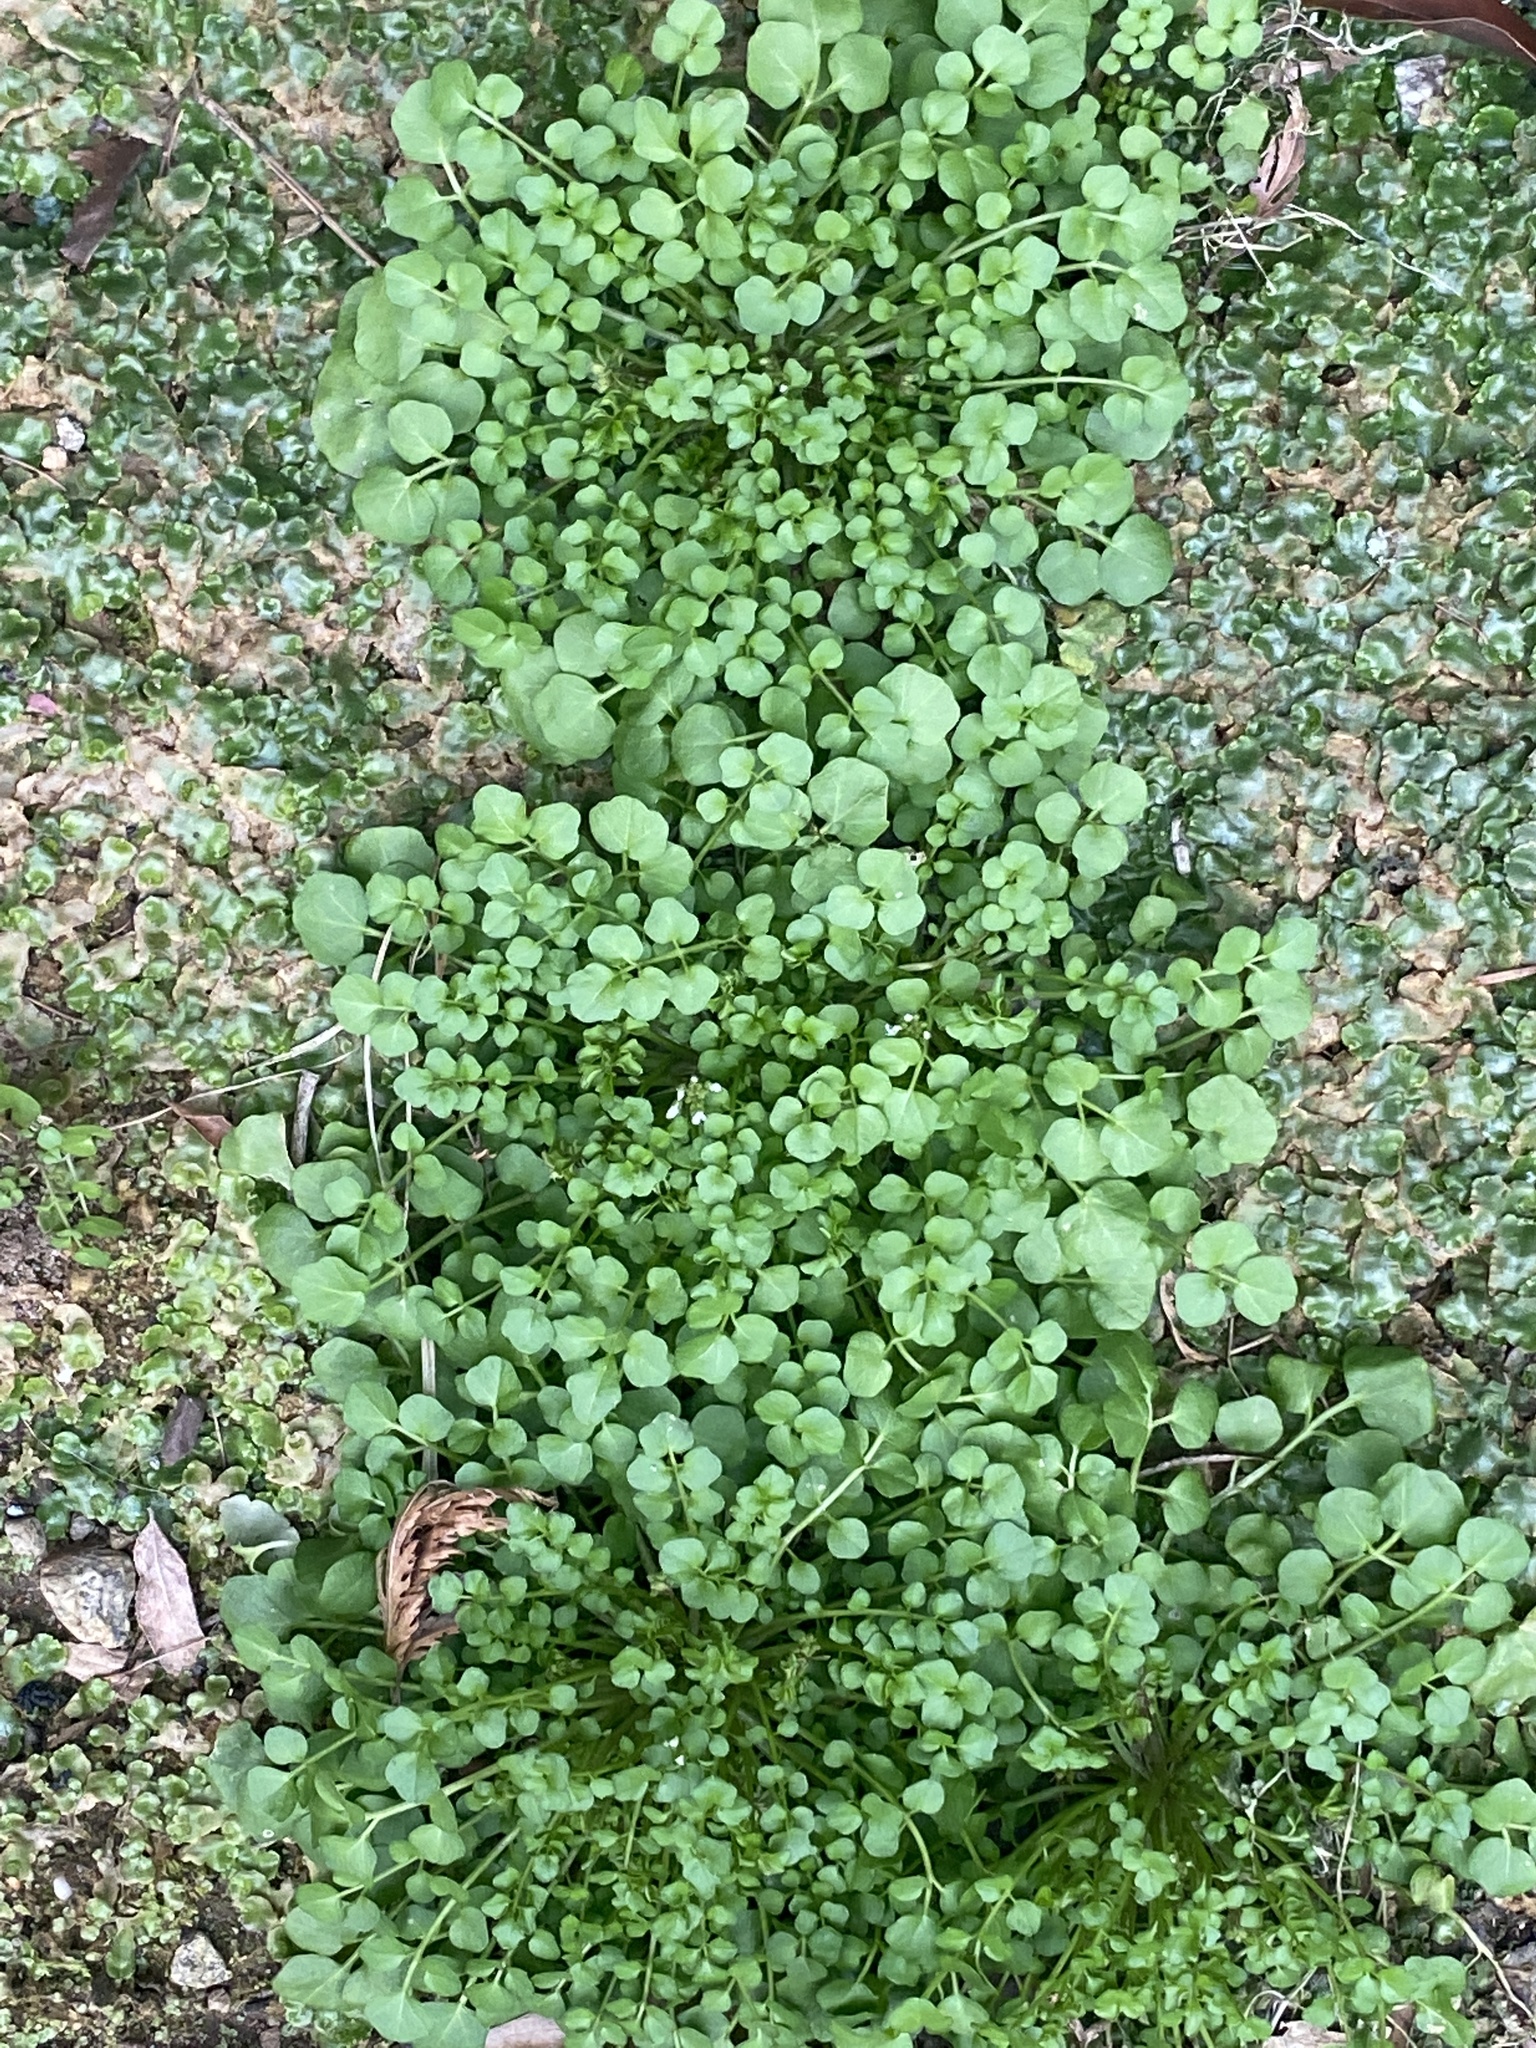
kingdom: Plantae
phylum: Tracheophyta
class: Magnoliopsida
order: Brassicales
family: Brassicaceae
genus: Cardamine
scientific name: Cardamine hirsuta
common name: Hairy bittercress
